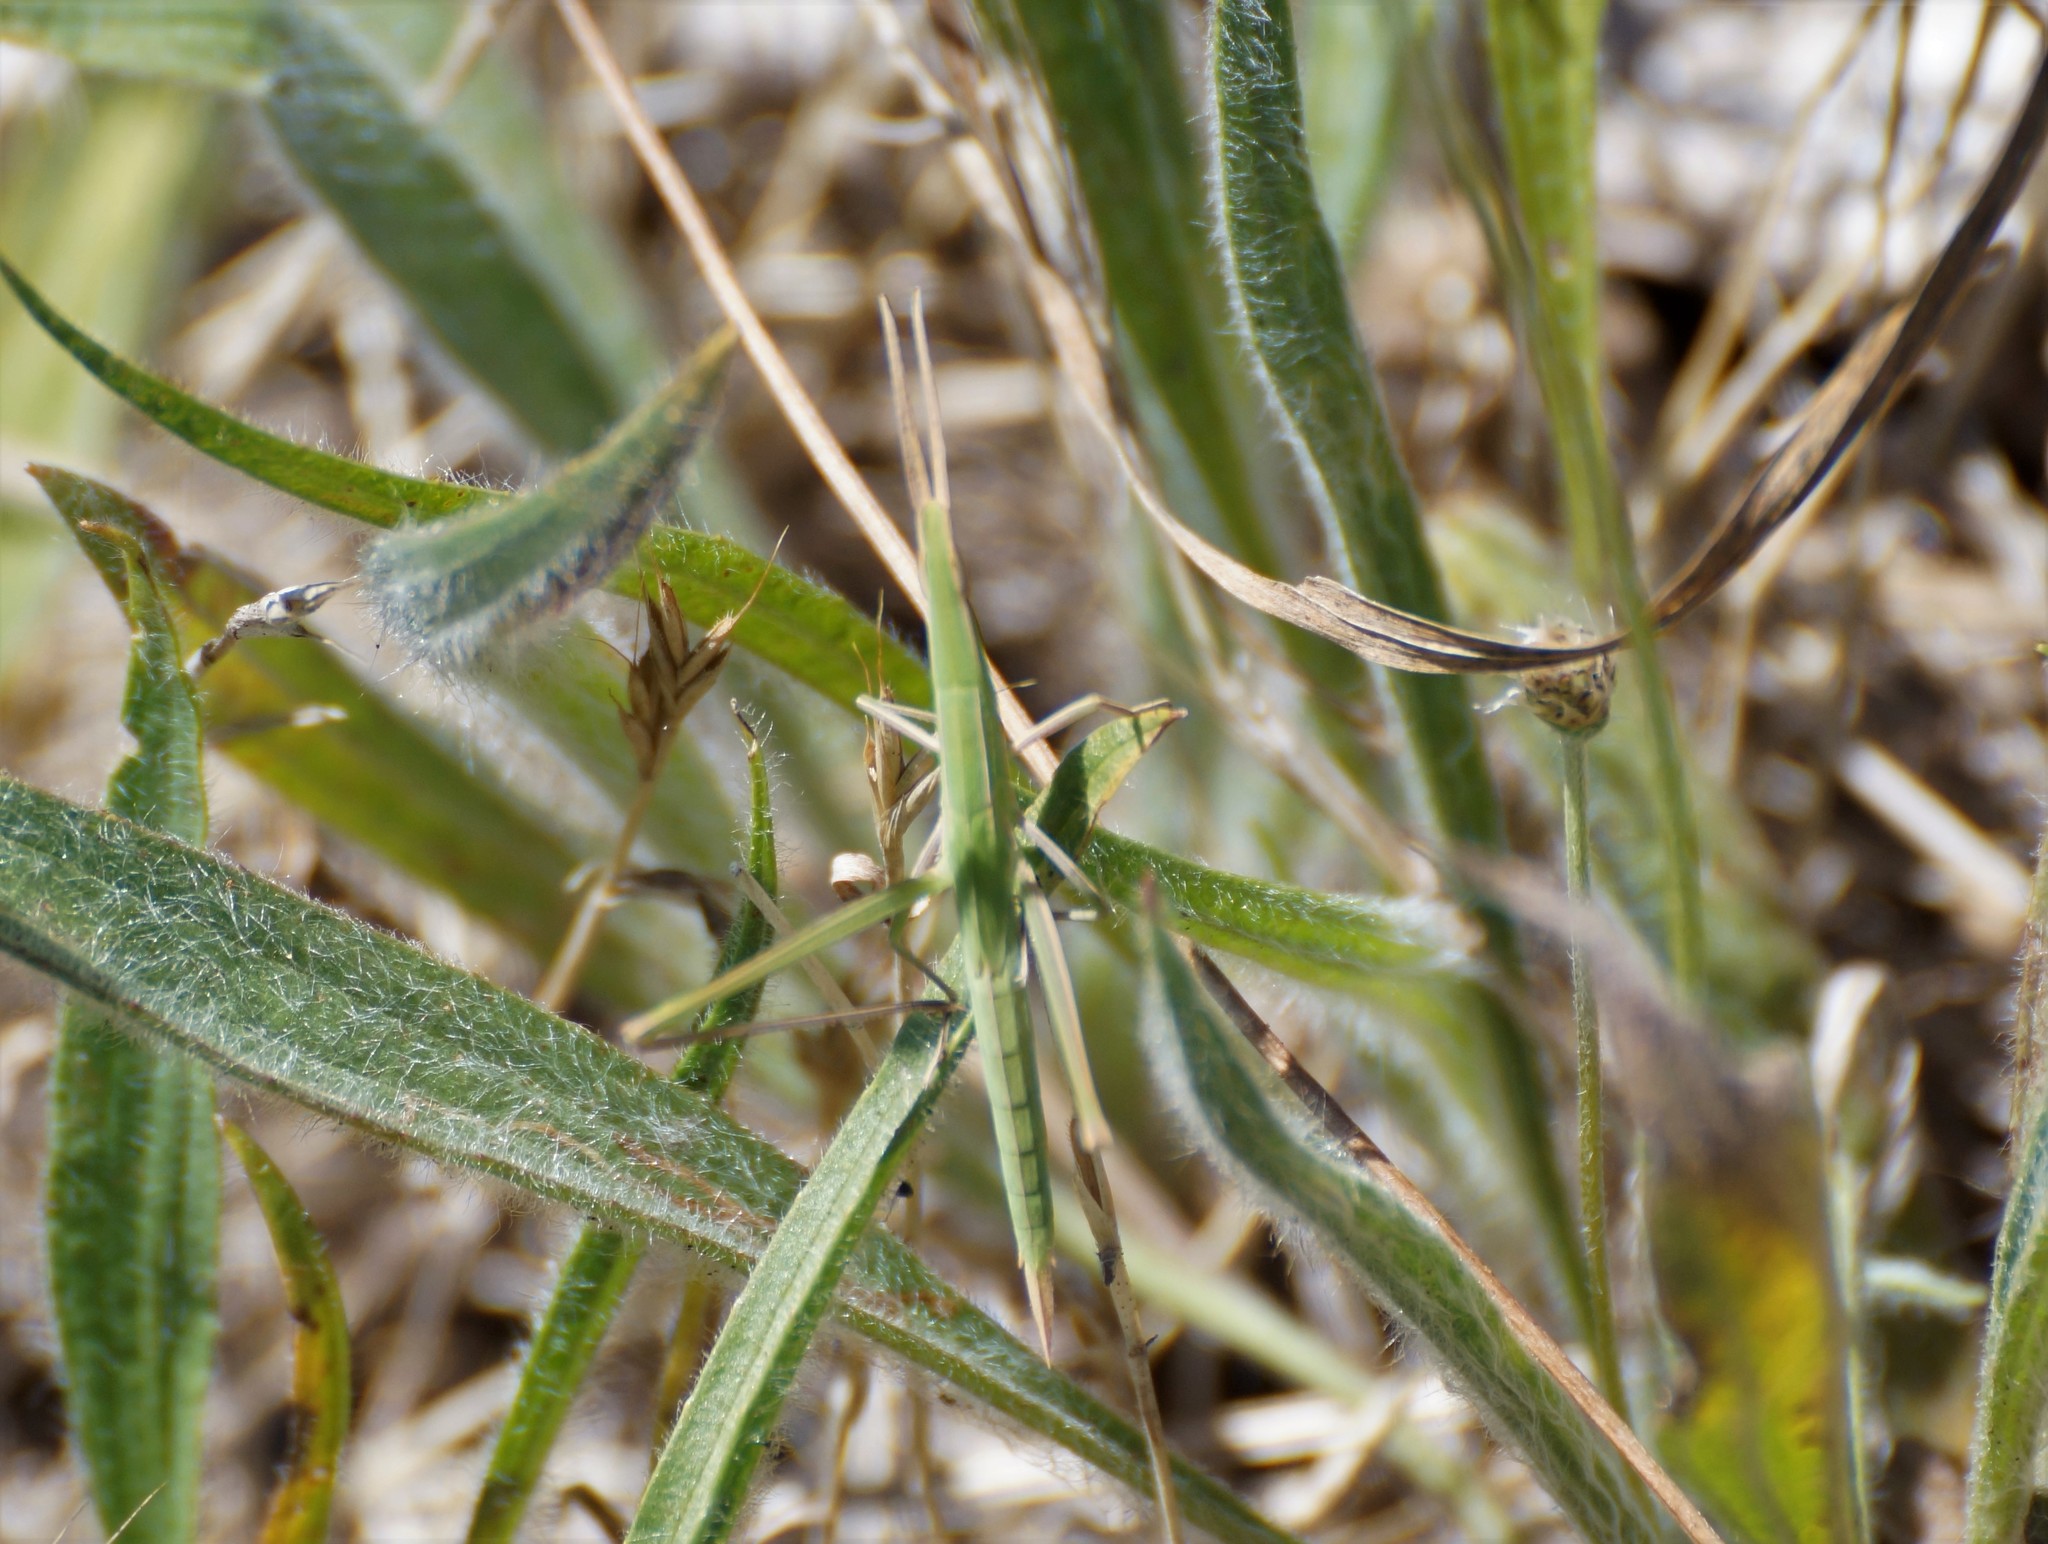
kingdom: Animalia
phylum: Arthropoda
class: Insecta
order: Orthoptera
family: Acrididae
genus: Acrida
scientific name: Acrida conica
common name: Giant green slantface
